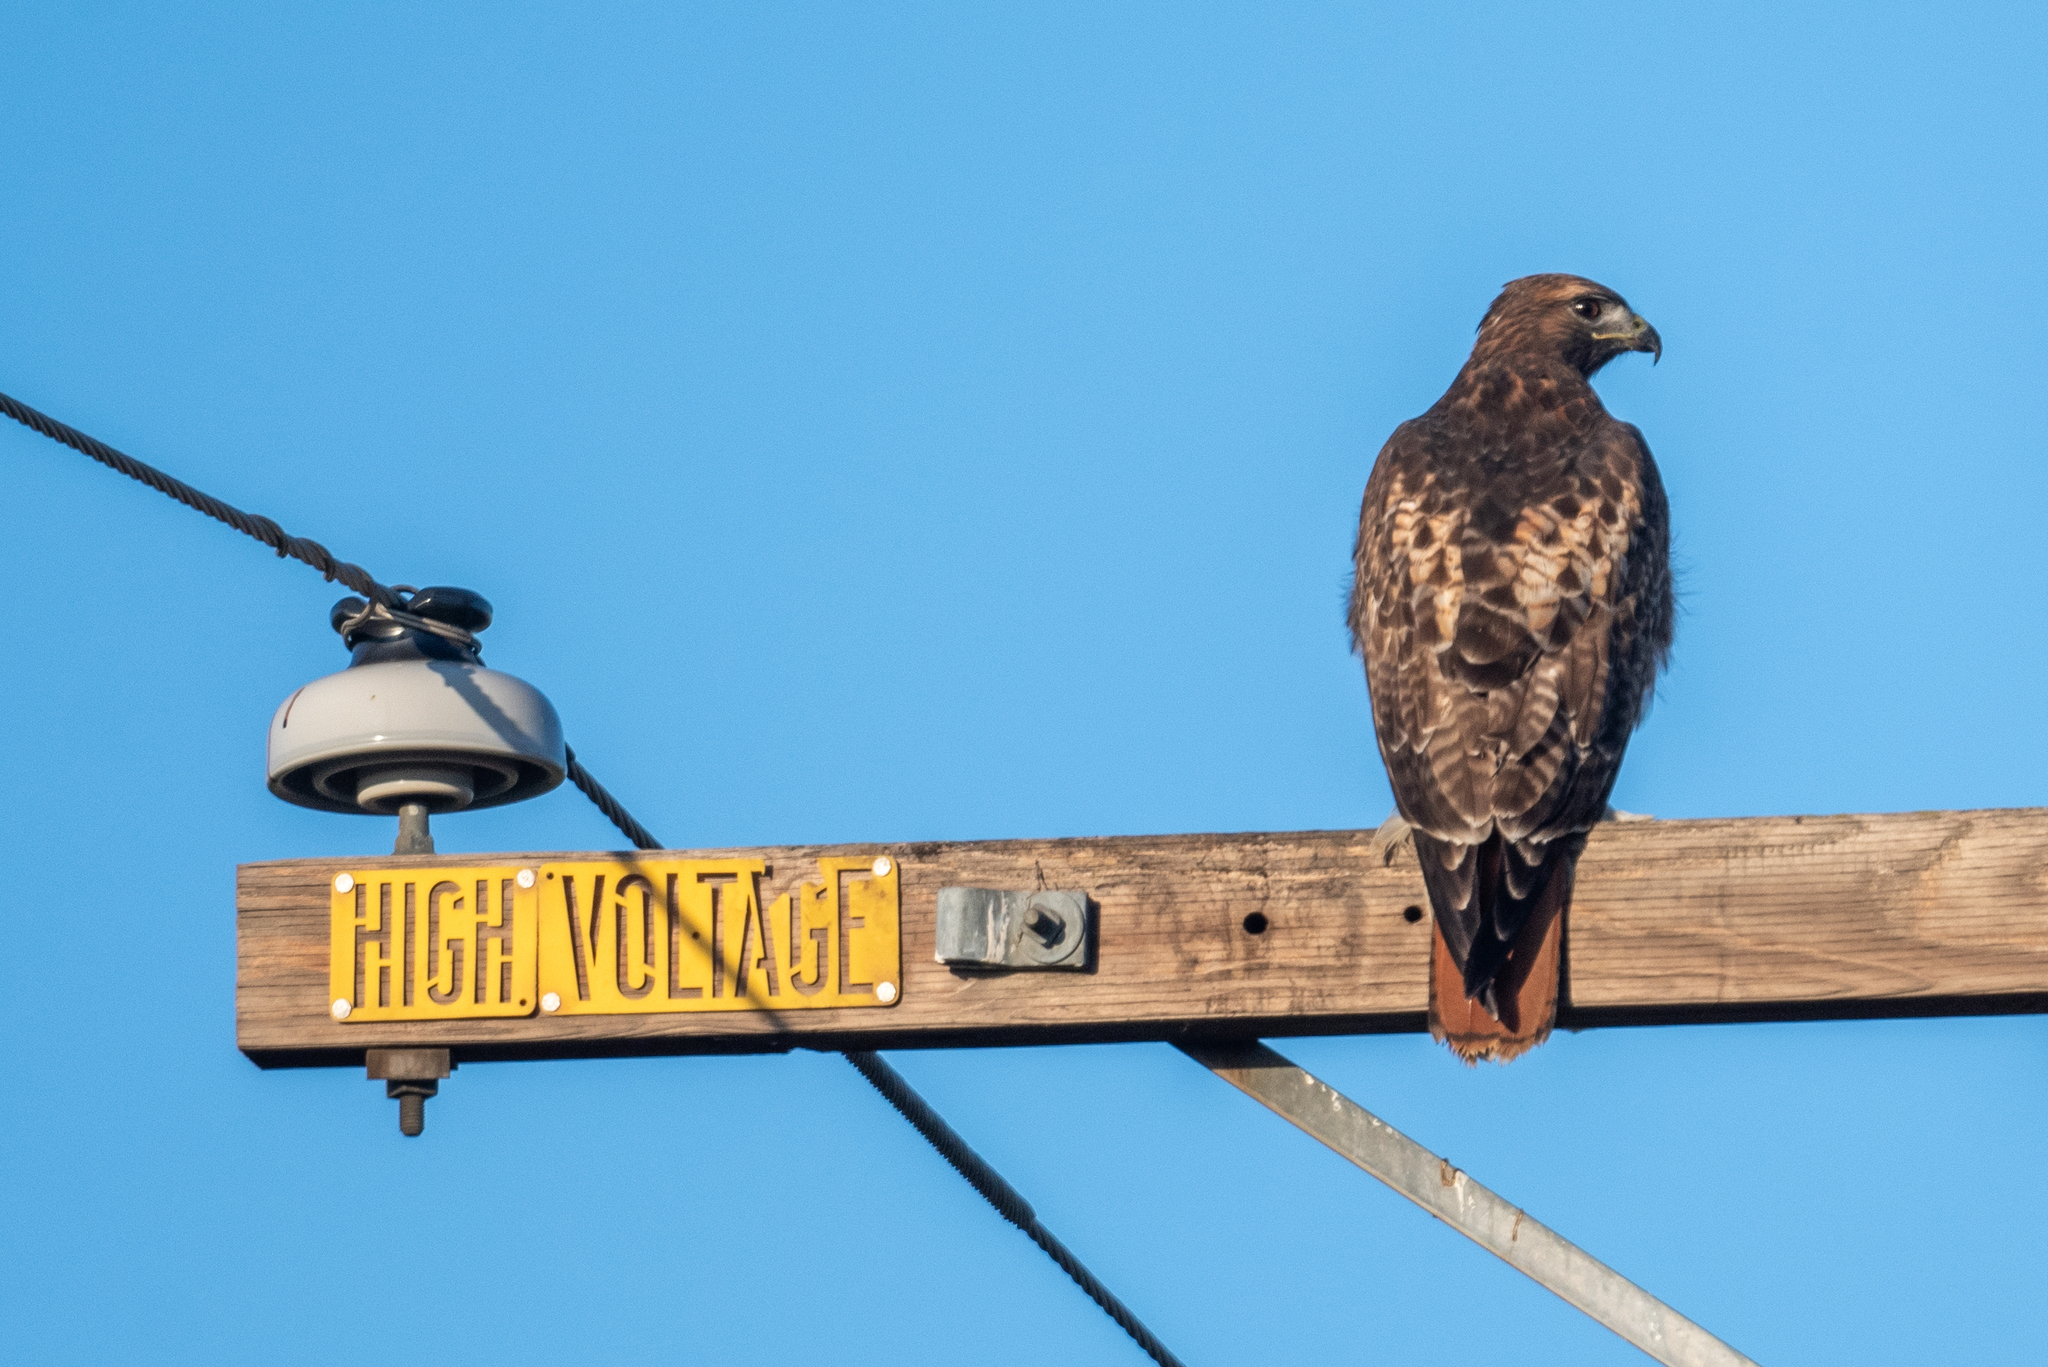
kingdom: Animalia
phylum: Chordata
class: Aves
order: Accipitriformes
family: Accipitridae
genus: Buteo
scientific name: Buteo jamaicensis
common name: Red-tailed hawk
